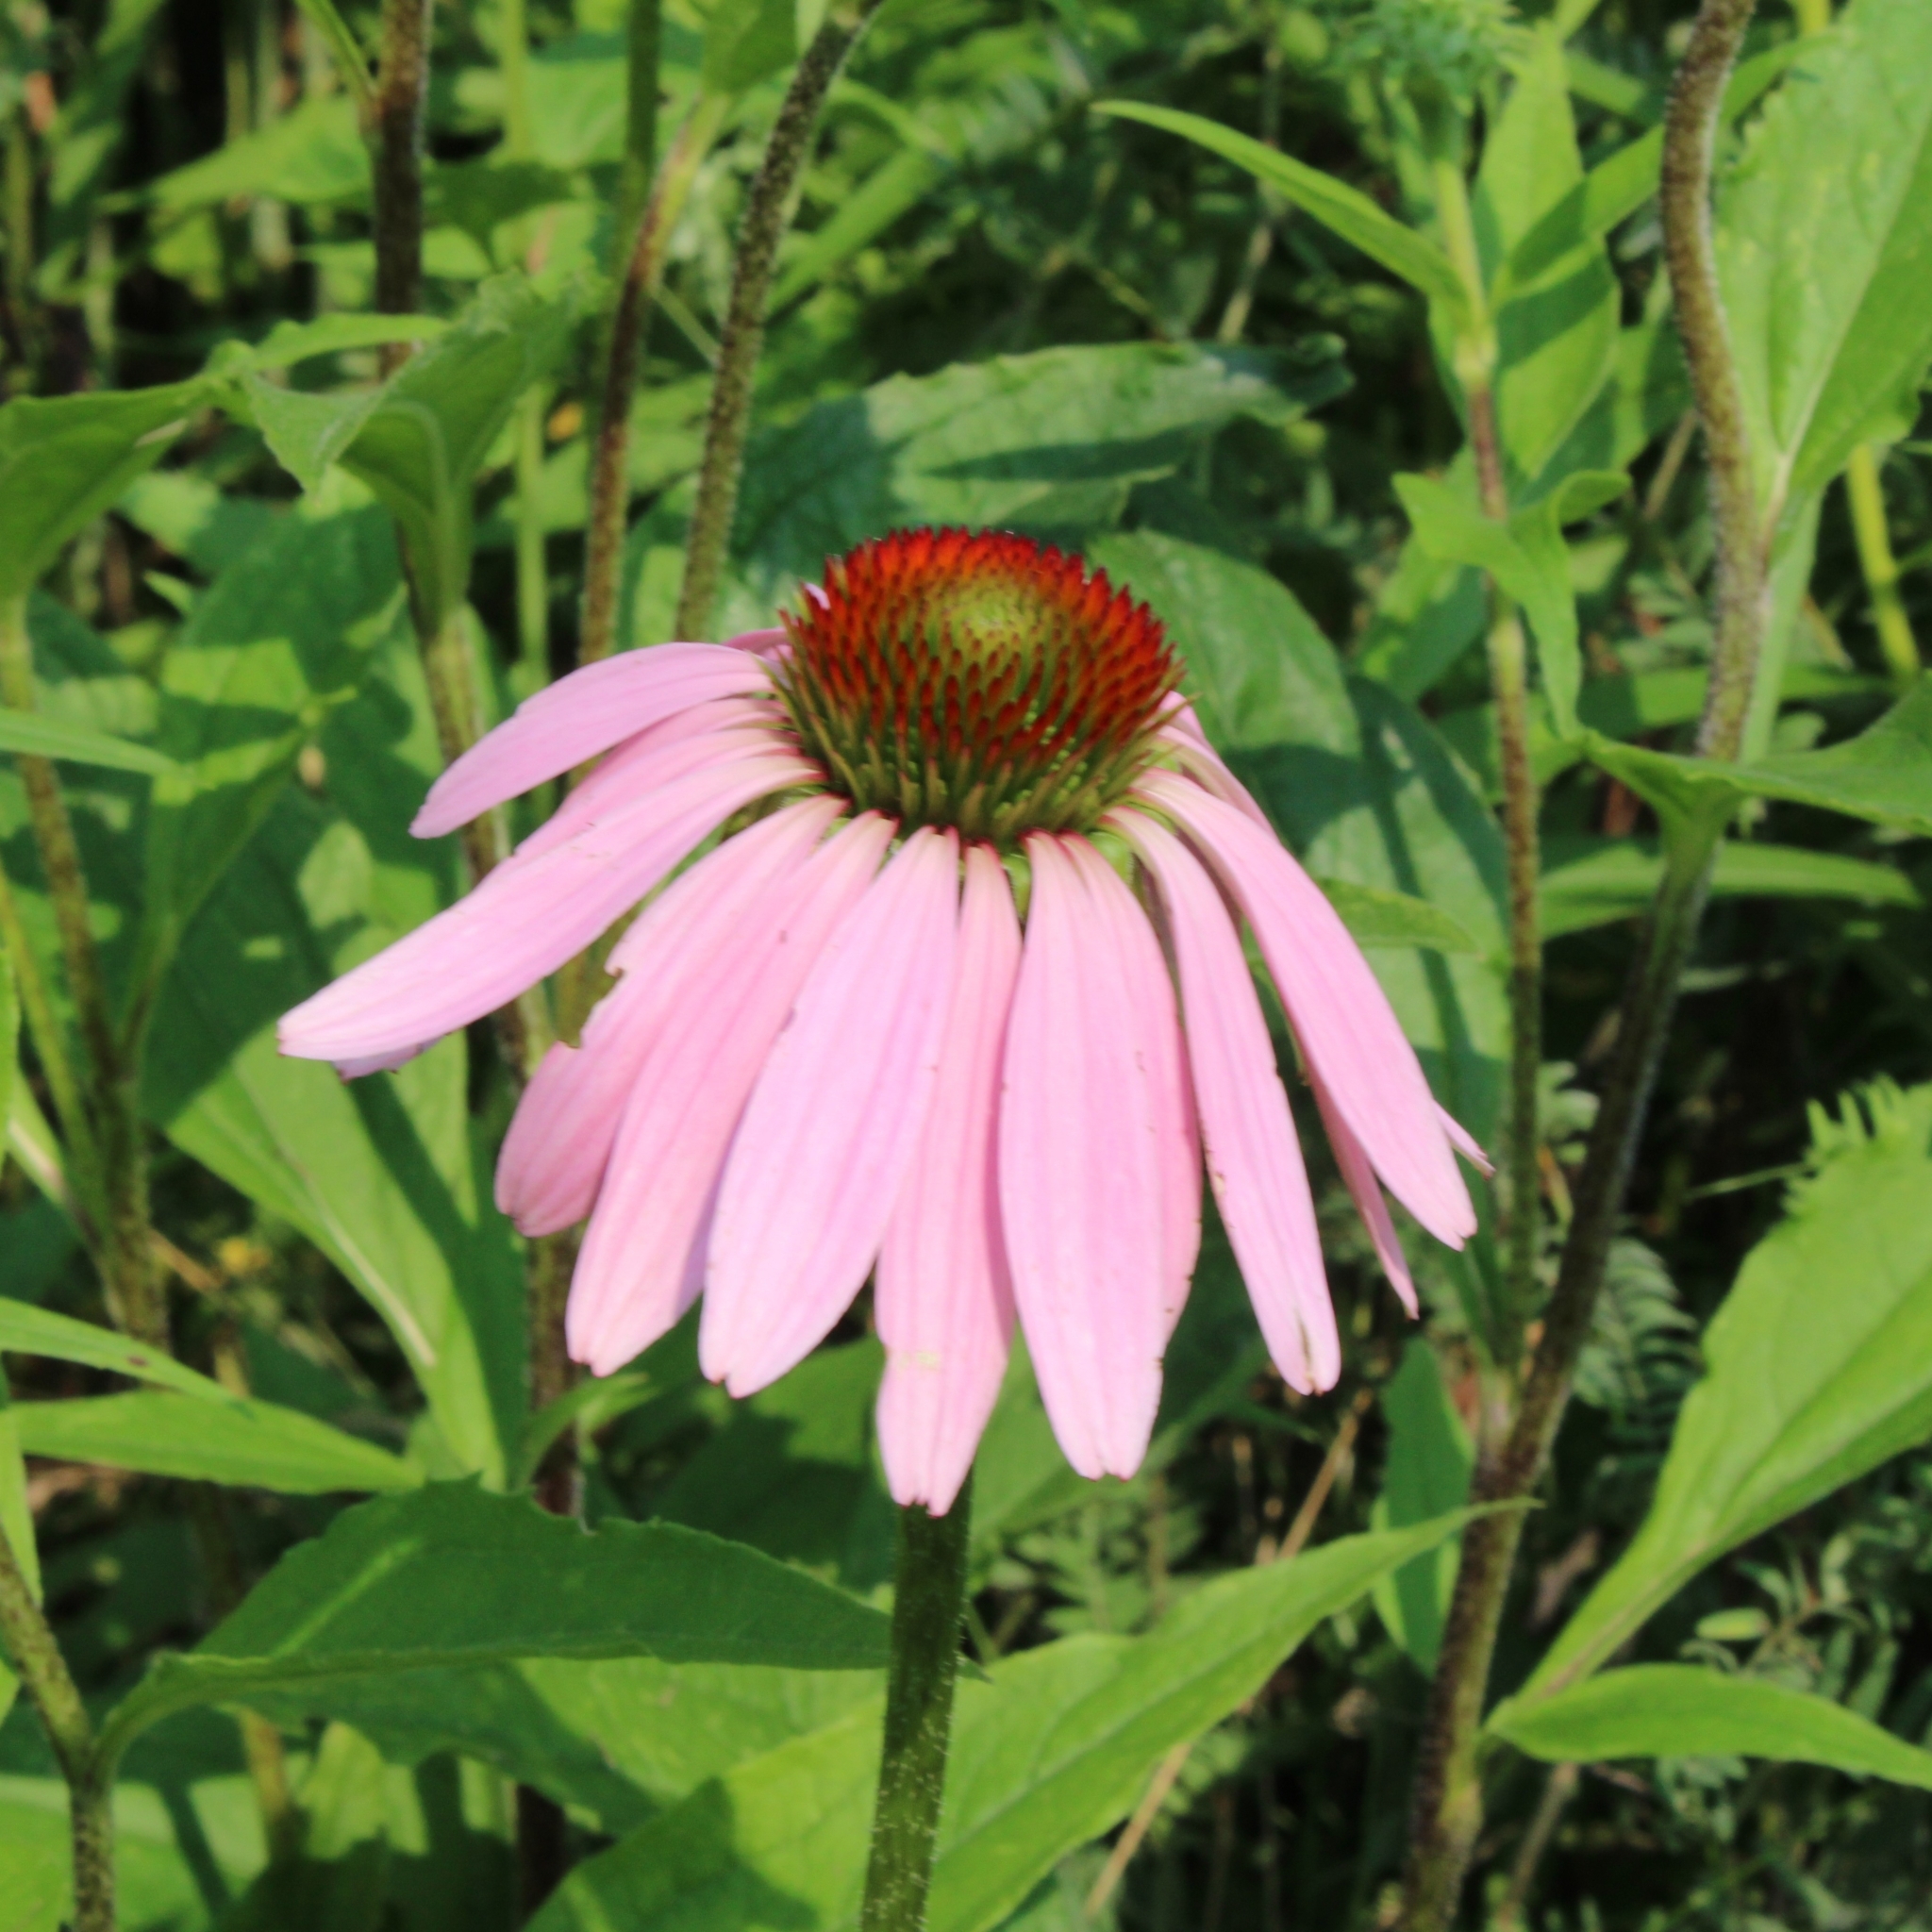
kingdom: Plantae
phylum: Tracheophyta
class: Magnoliopsida
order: Asterales
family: Asteraceae
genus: Echinacea
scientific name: Echinacea purpurea
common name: Broad-leaved purple coneflower
